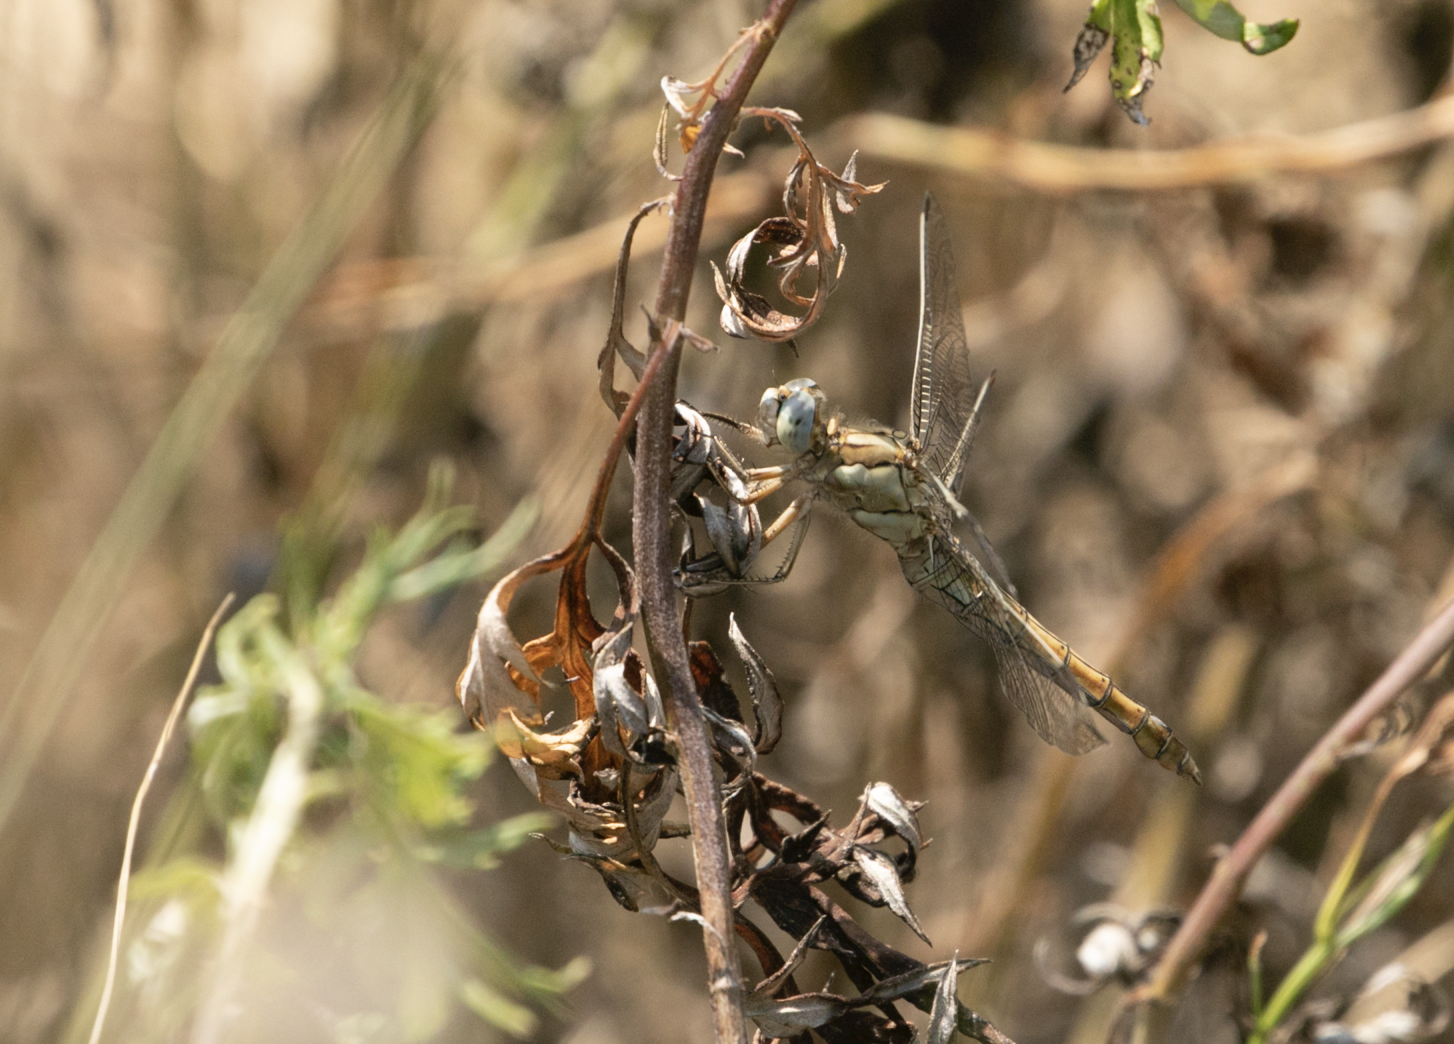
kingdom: Animalia
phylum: Arthropoda
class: Insecta
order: Odonata
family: Libellulidae
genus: Orthetrum
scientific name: Orthetrum brunneum
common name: Southern skimmer
